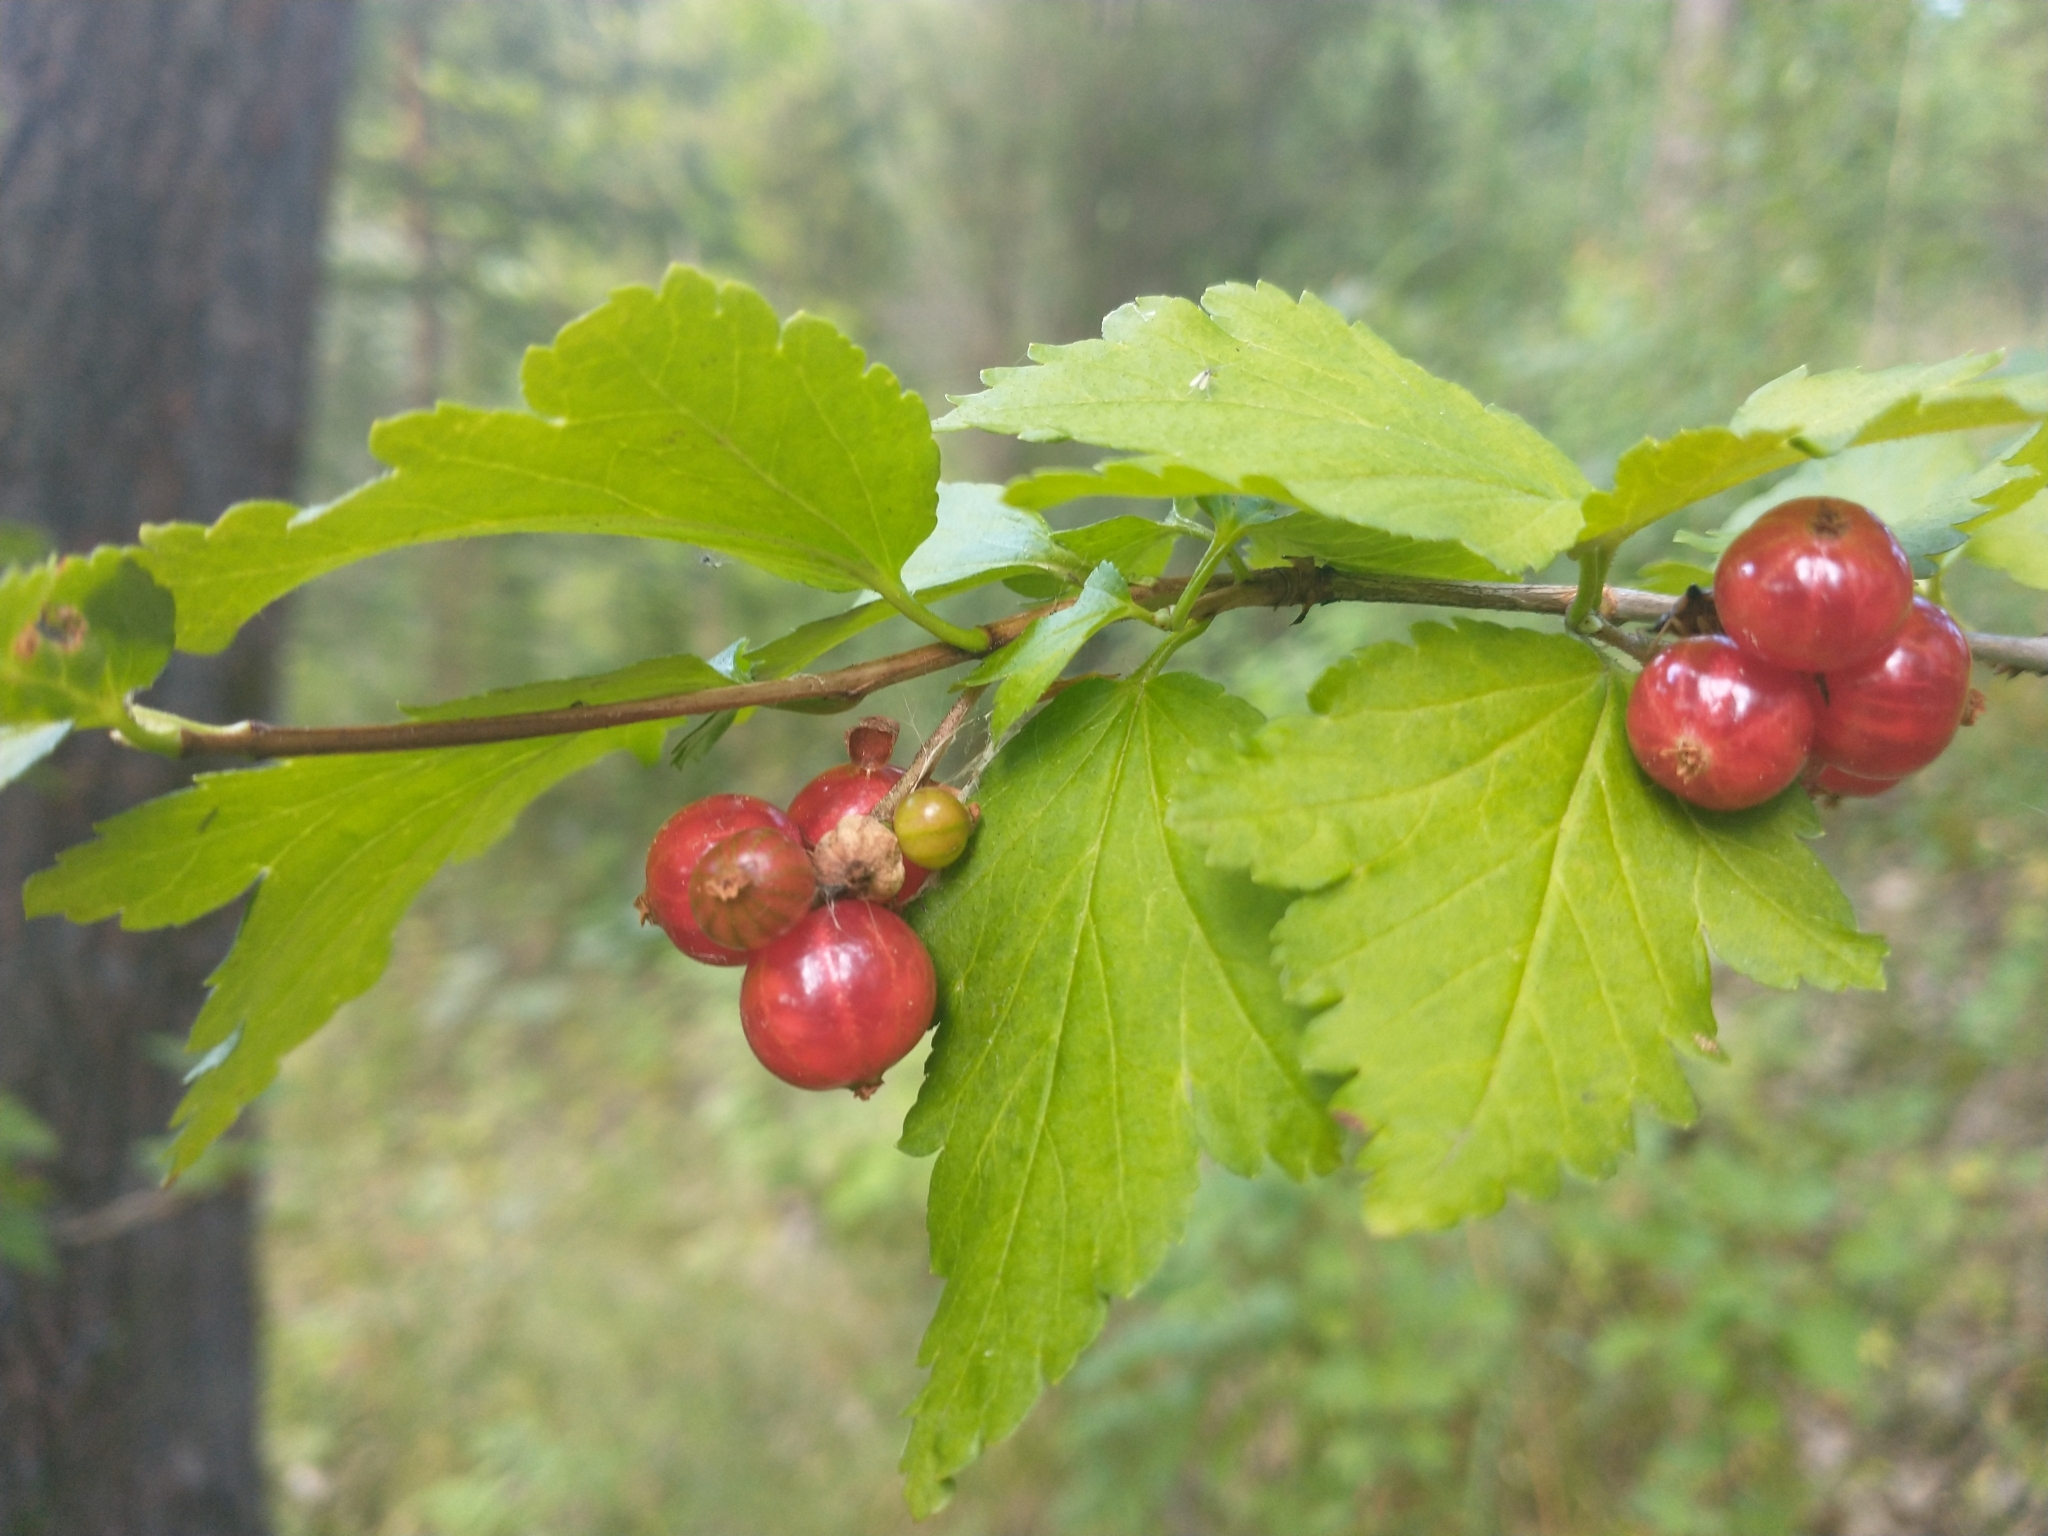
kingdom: Plantae
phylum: Tracheophyta
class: Magnoliopsida
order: Saxifragales
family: Grossulariaceae
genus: Ribes
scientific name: Ribes alpinum
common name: Alpine currant
